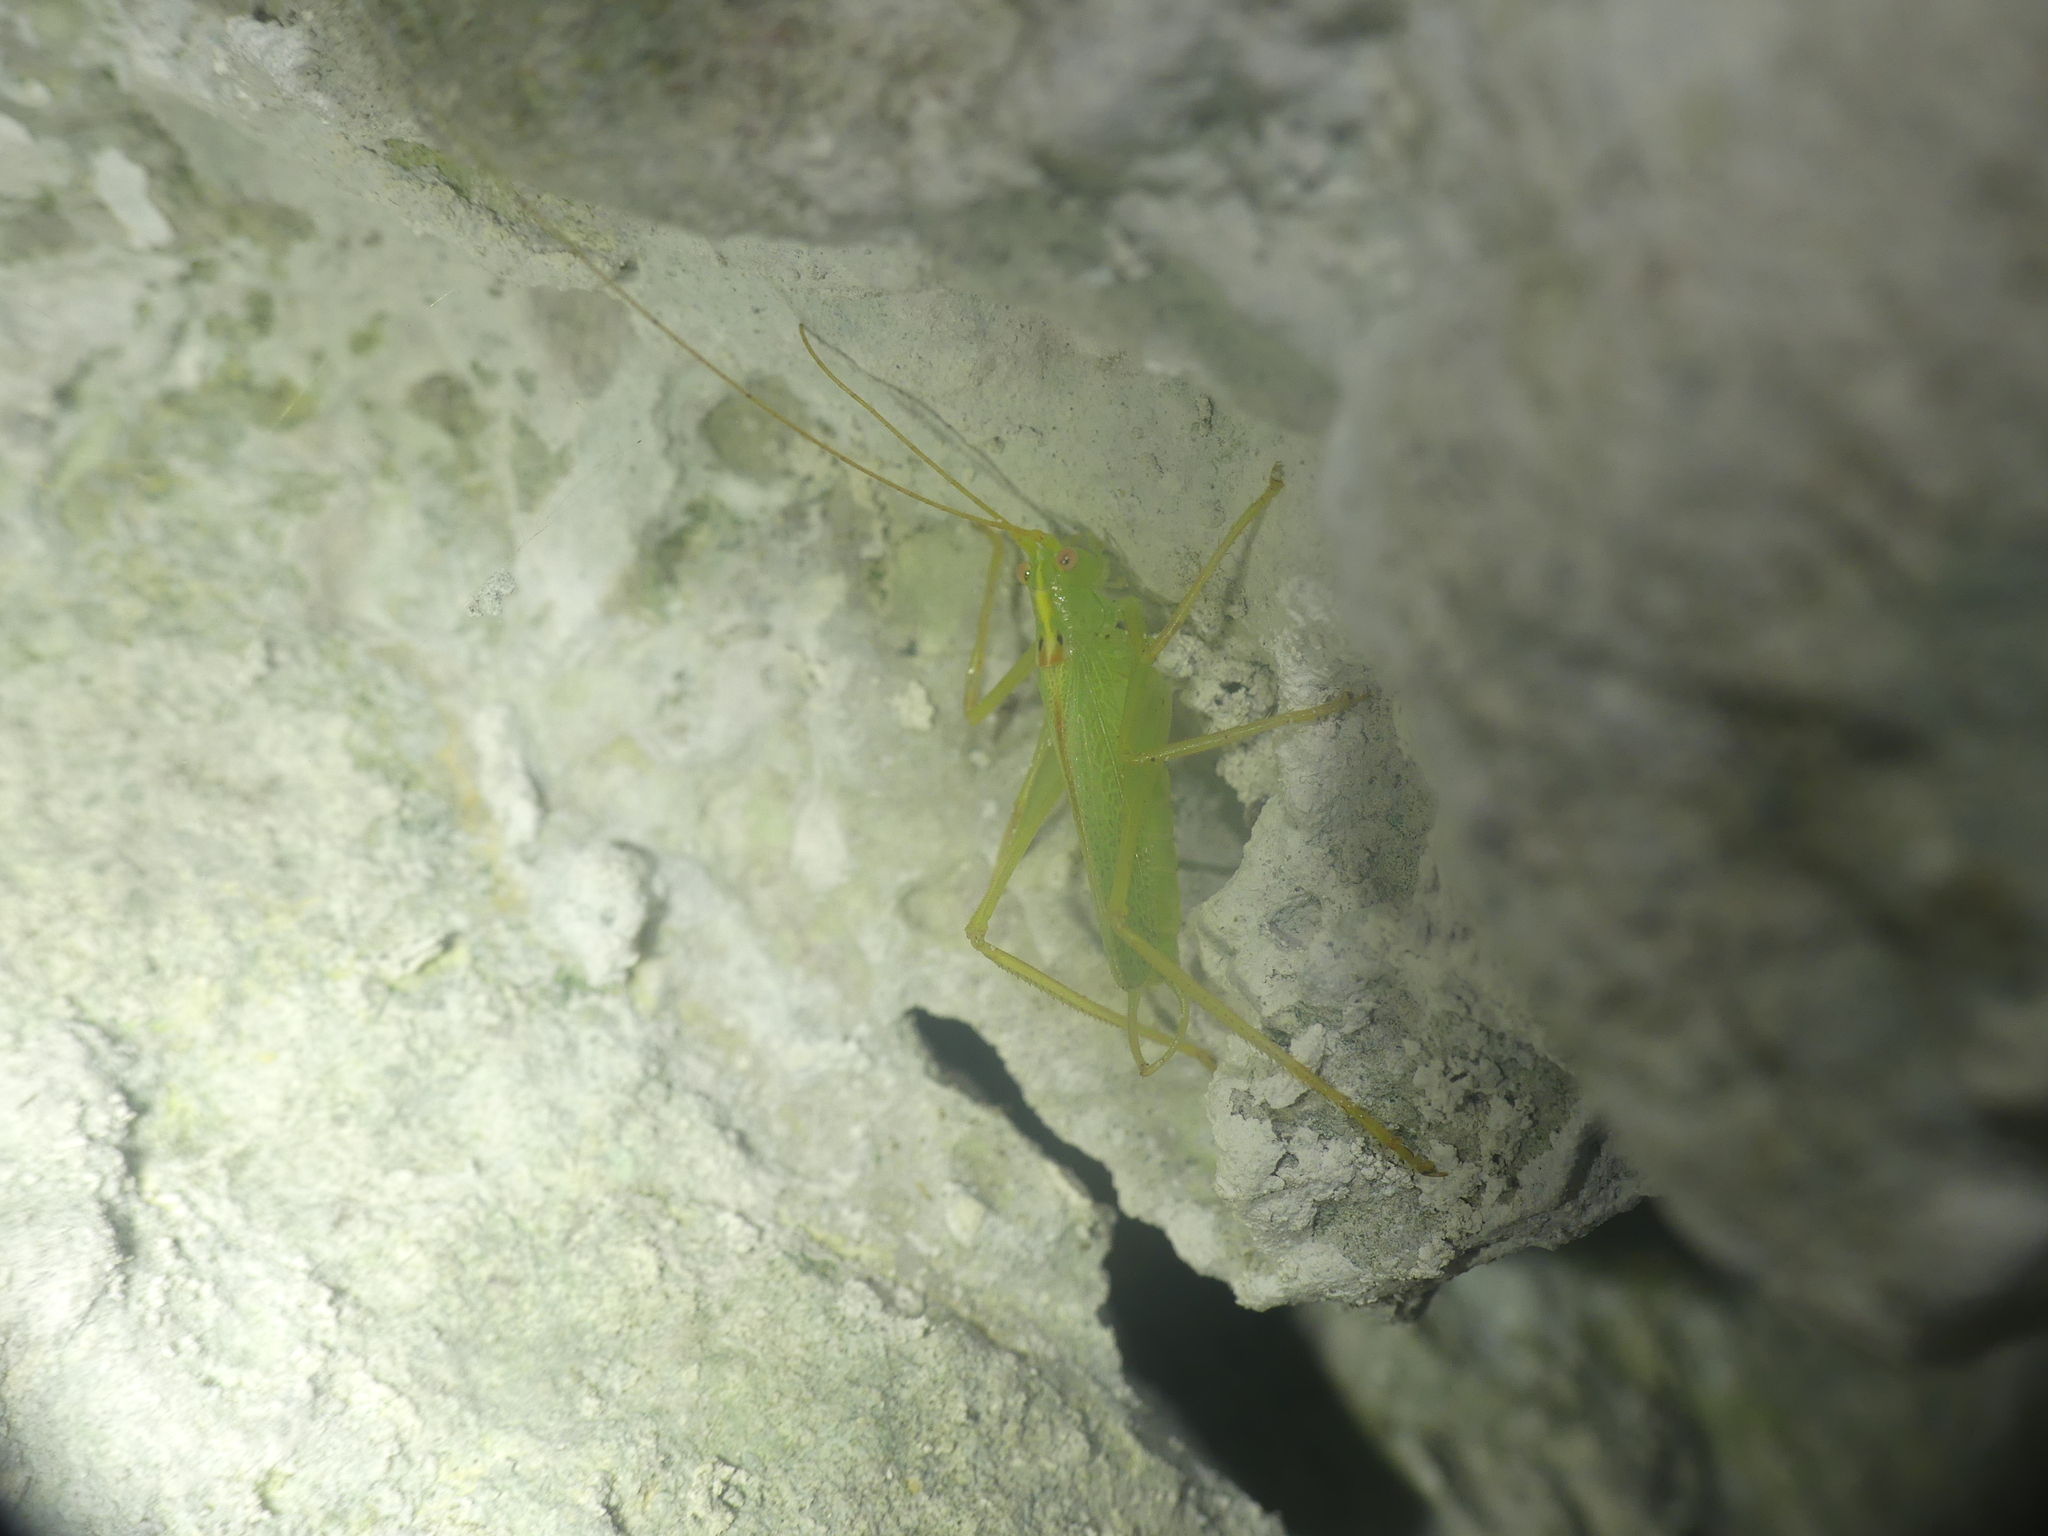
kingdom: Animalia
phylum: Arthropoda
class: Insecta
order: Orthoptera
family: Tettigoniidae
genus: Meconema
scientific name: Meconema thalassinum
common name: Oak bush-cricket
